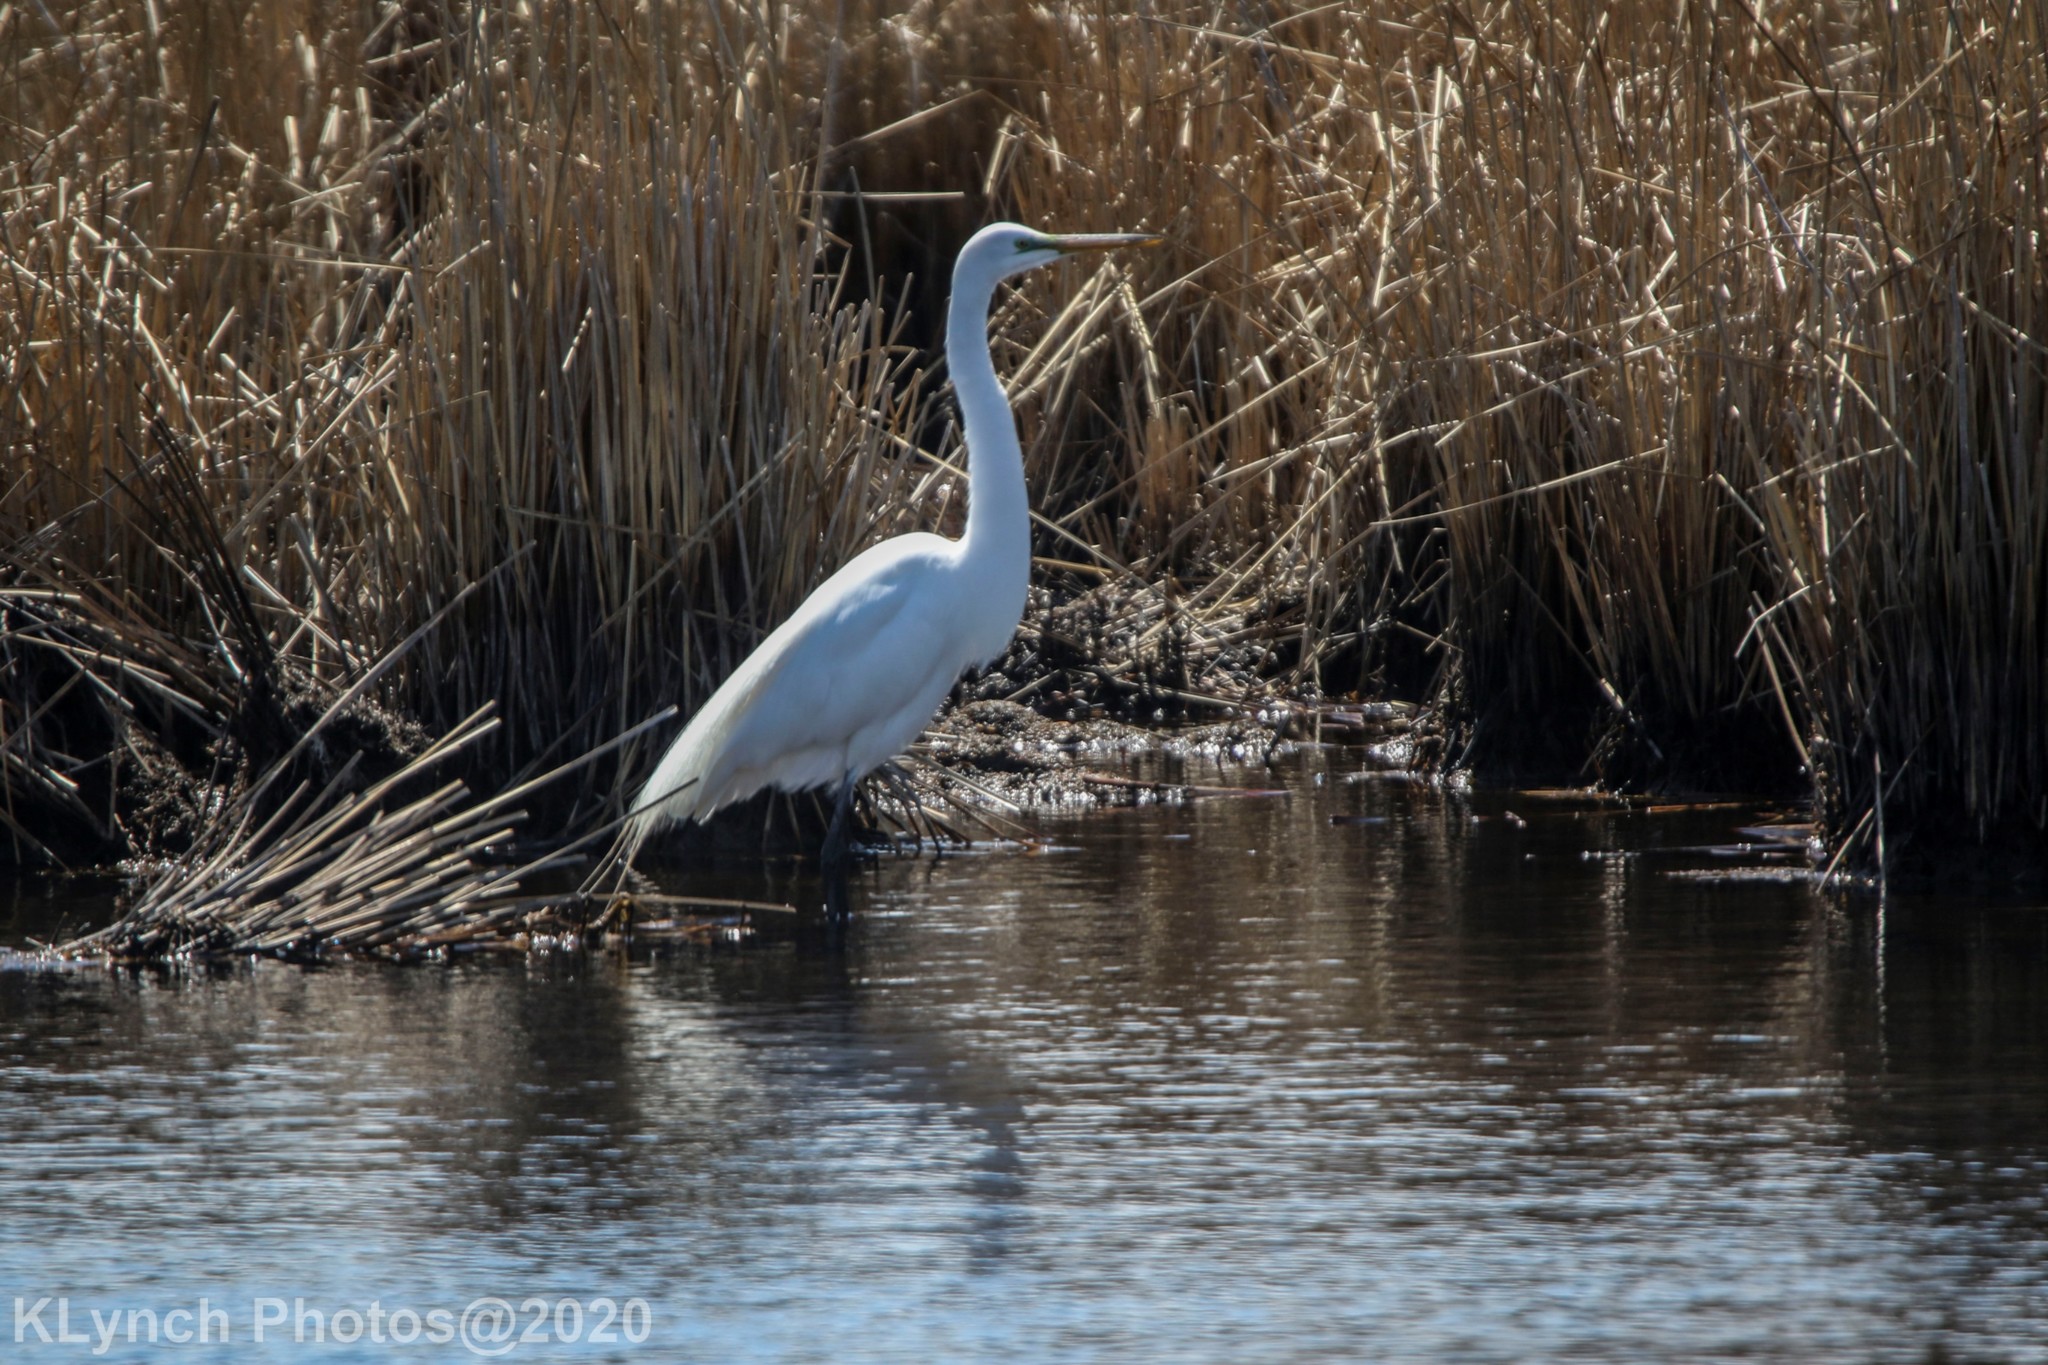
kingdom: Animalia
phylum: Chordata
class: Aves
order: Pelecaniformes
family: Ardeidae
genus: Ardea
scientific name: Ardea alba
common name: Great egret
